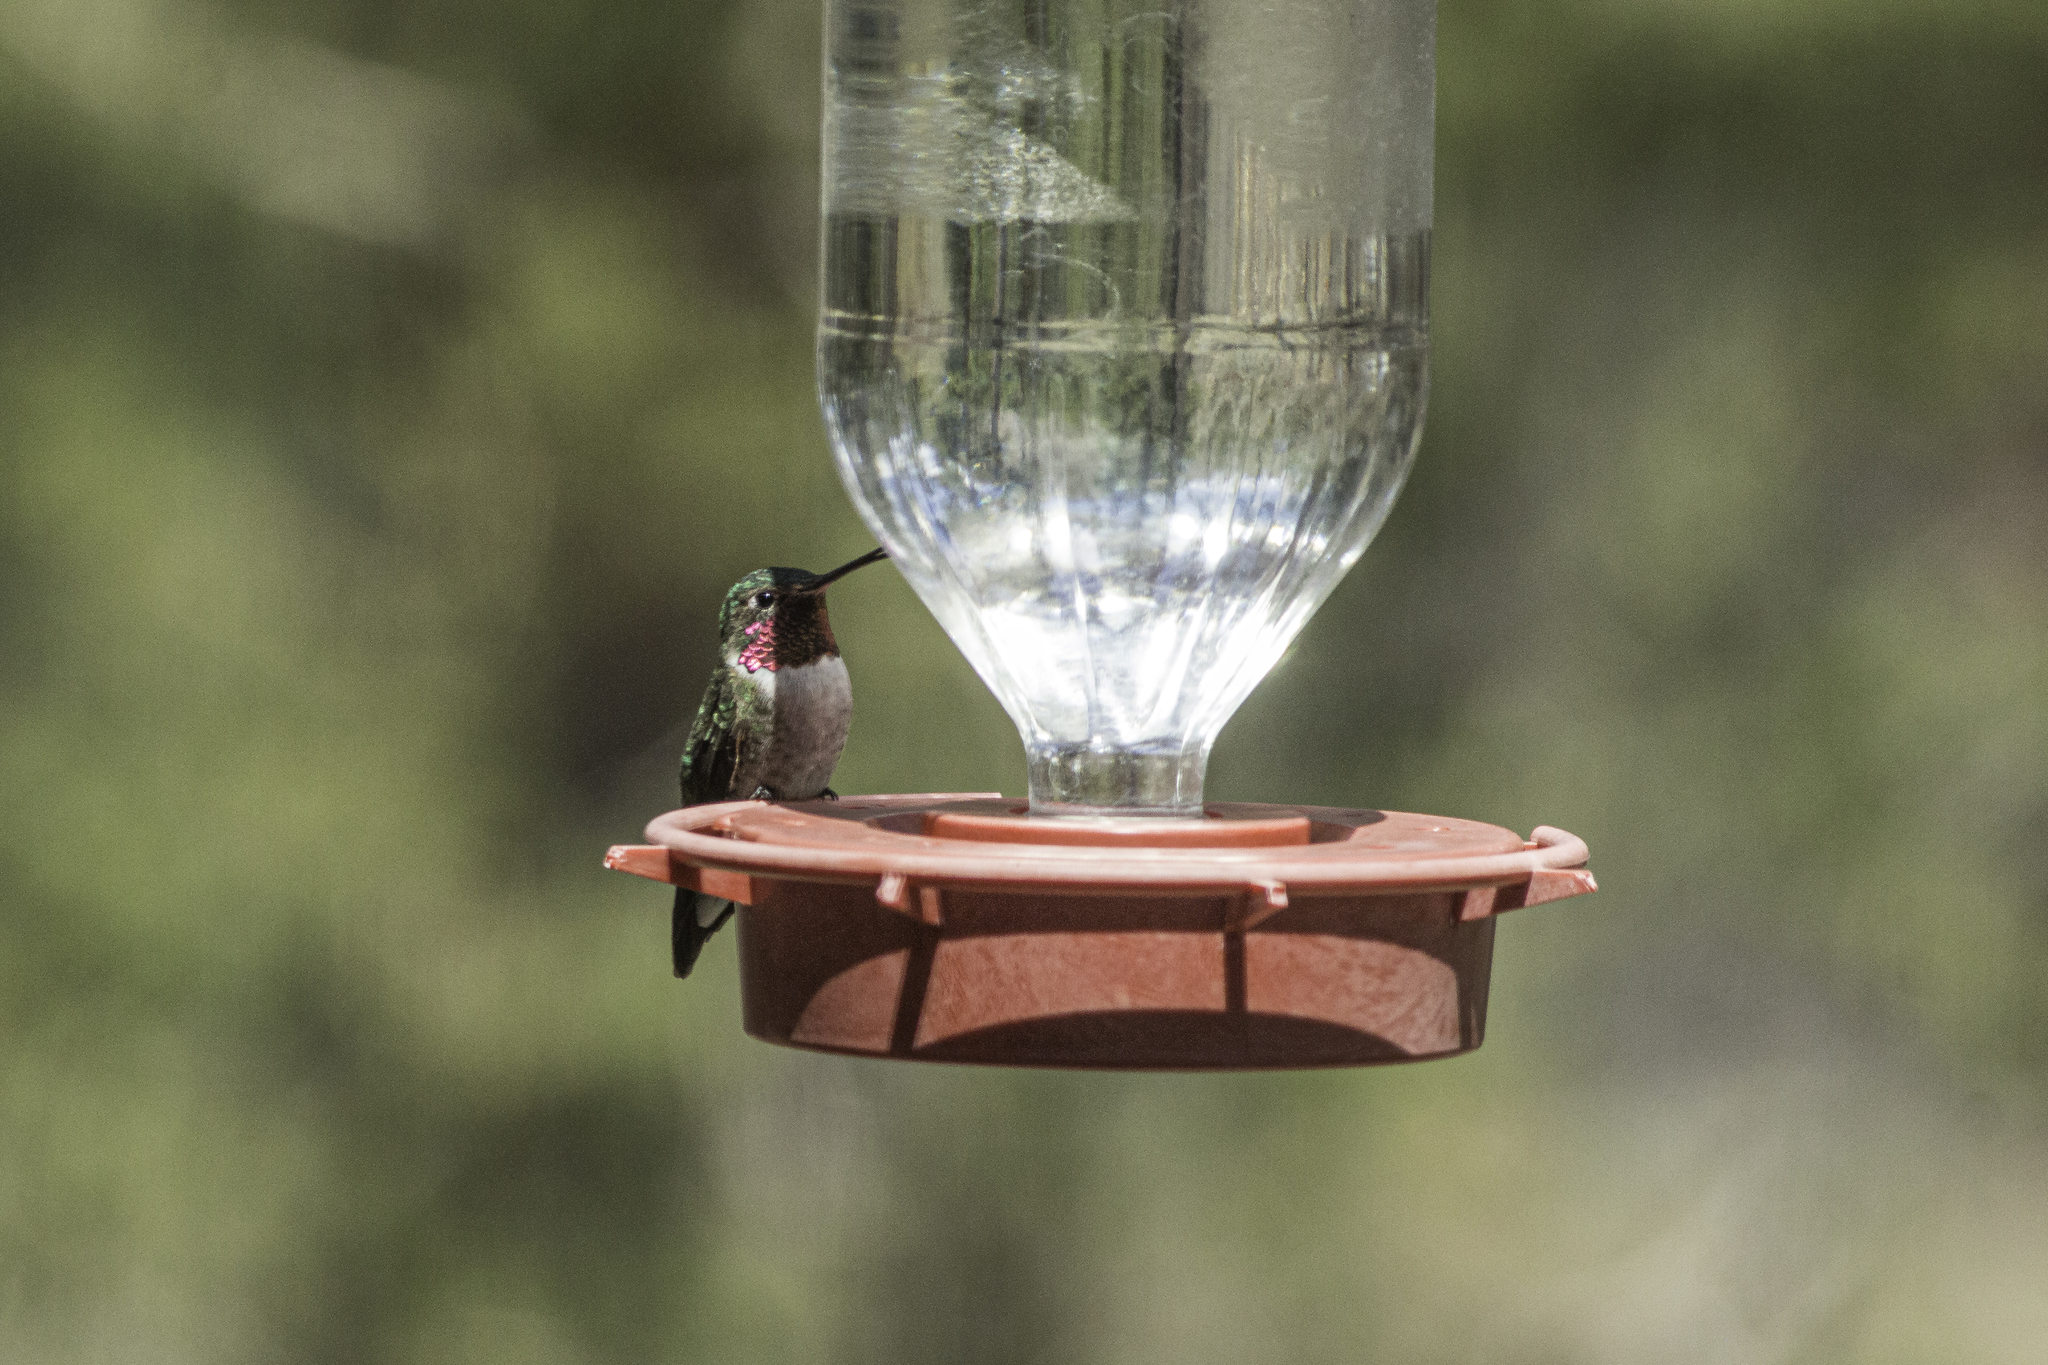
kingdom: Animalia
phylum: Chordata
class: Aves
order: Apodiformes
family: Trochilidae
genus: Selasphorus
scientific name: Selasphorus platycercus
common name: Broad-tailed hummingbird
